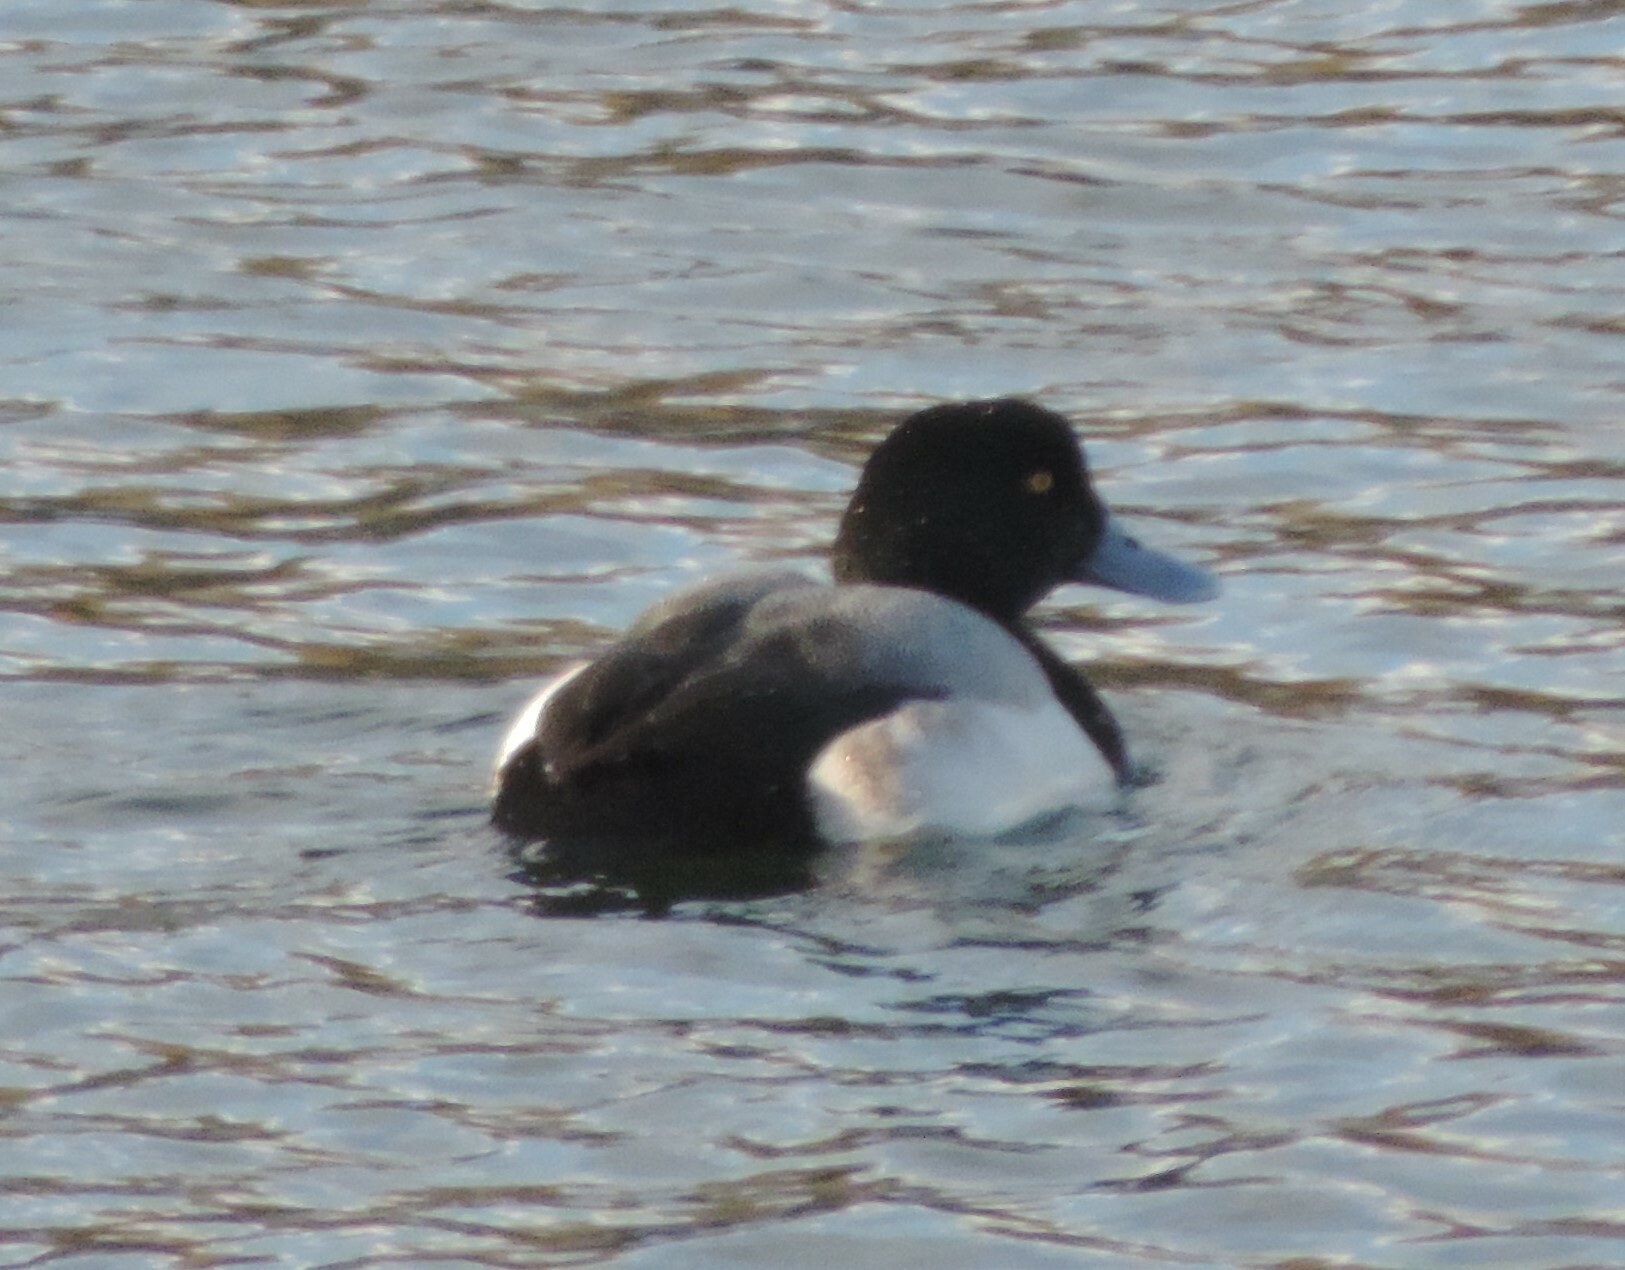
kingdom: Animalia
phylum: Chordata
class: Aves
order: Anseriformes
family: Anatidae
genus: Aythya
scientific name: Aythya marila
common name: Greater scaup
